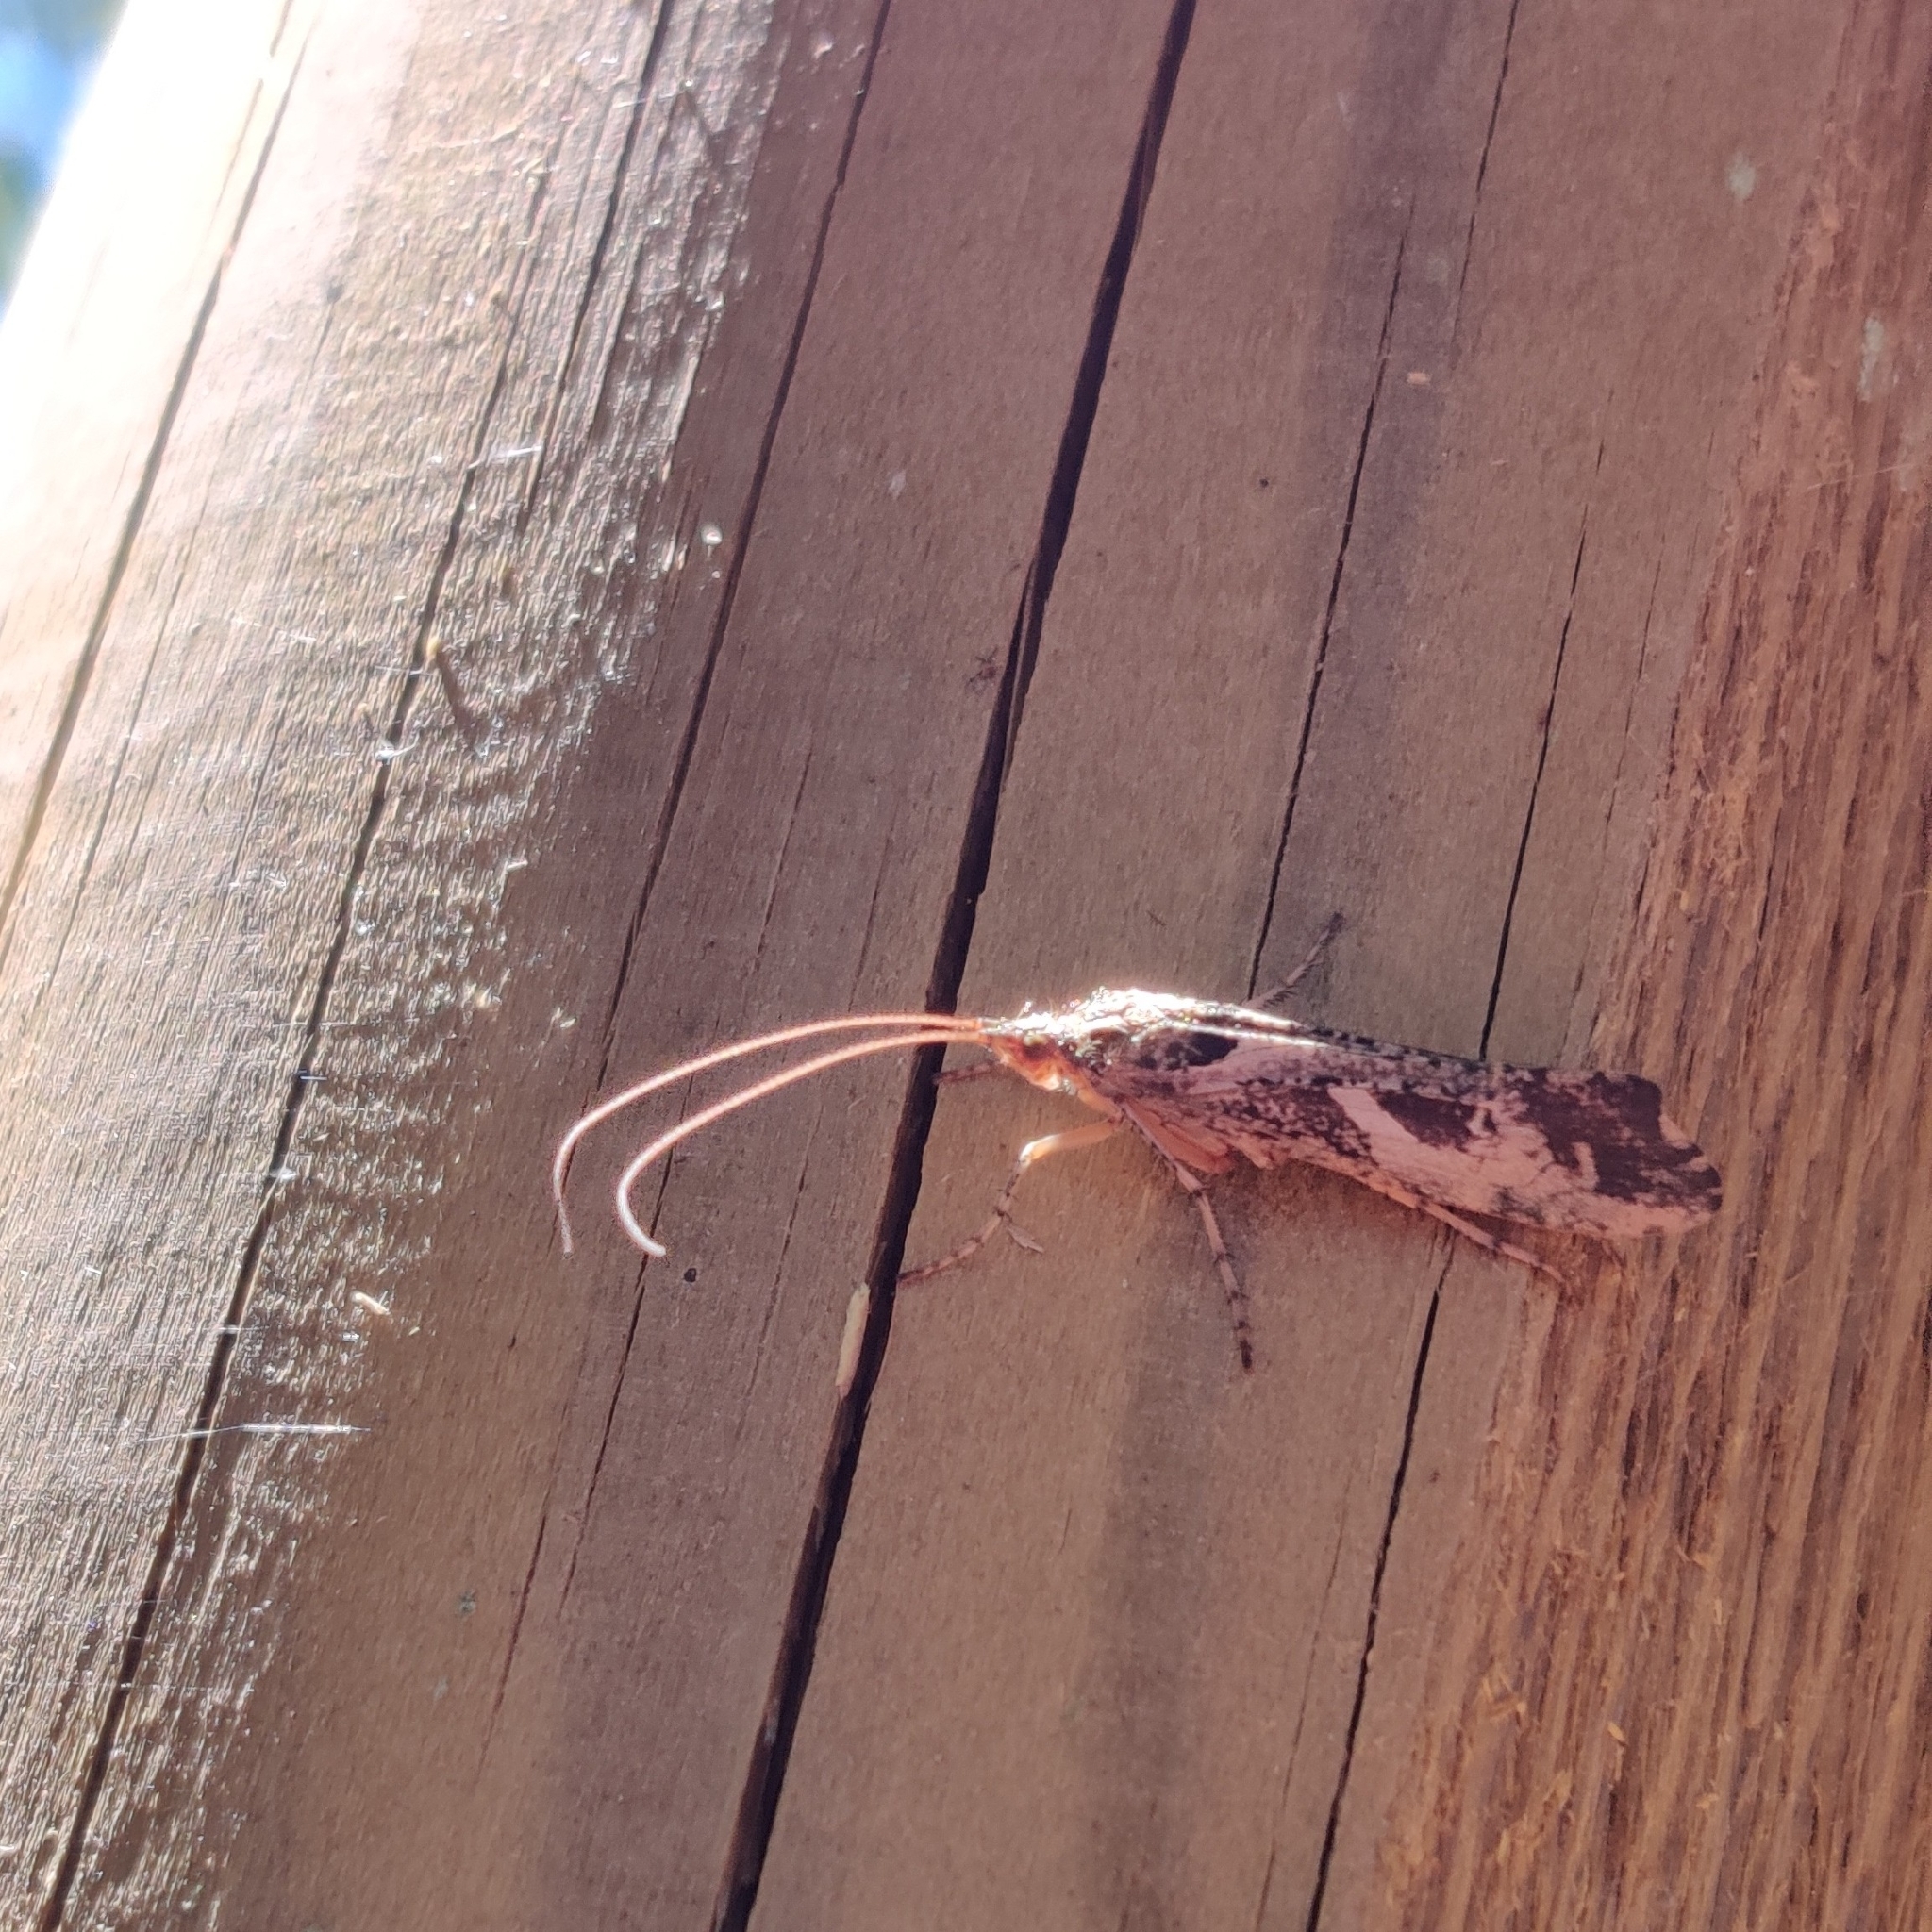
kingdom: Animalia
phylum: Arthropoda
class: Insecta
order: Trichoptera
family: Limnephilidae
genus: Glyphotaelius
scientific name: Glyphotaelius pellucidus
